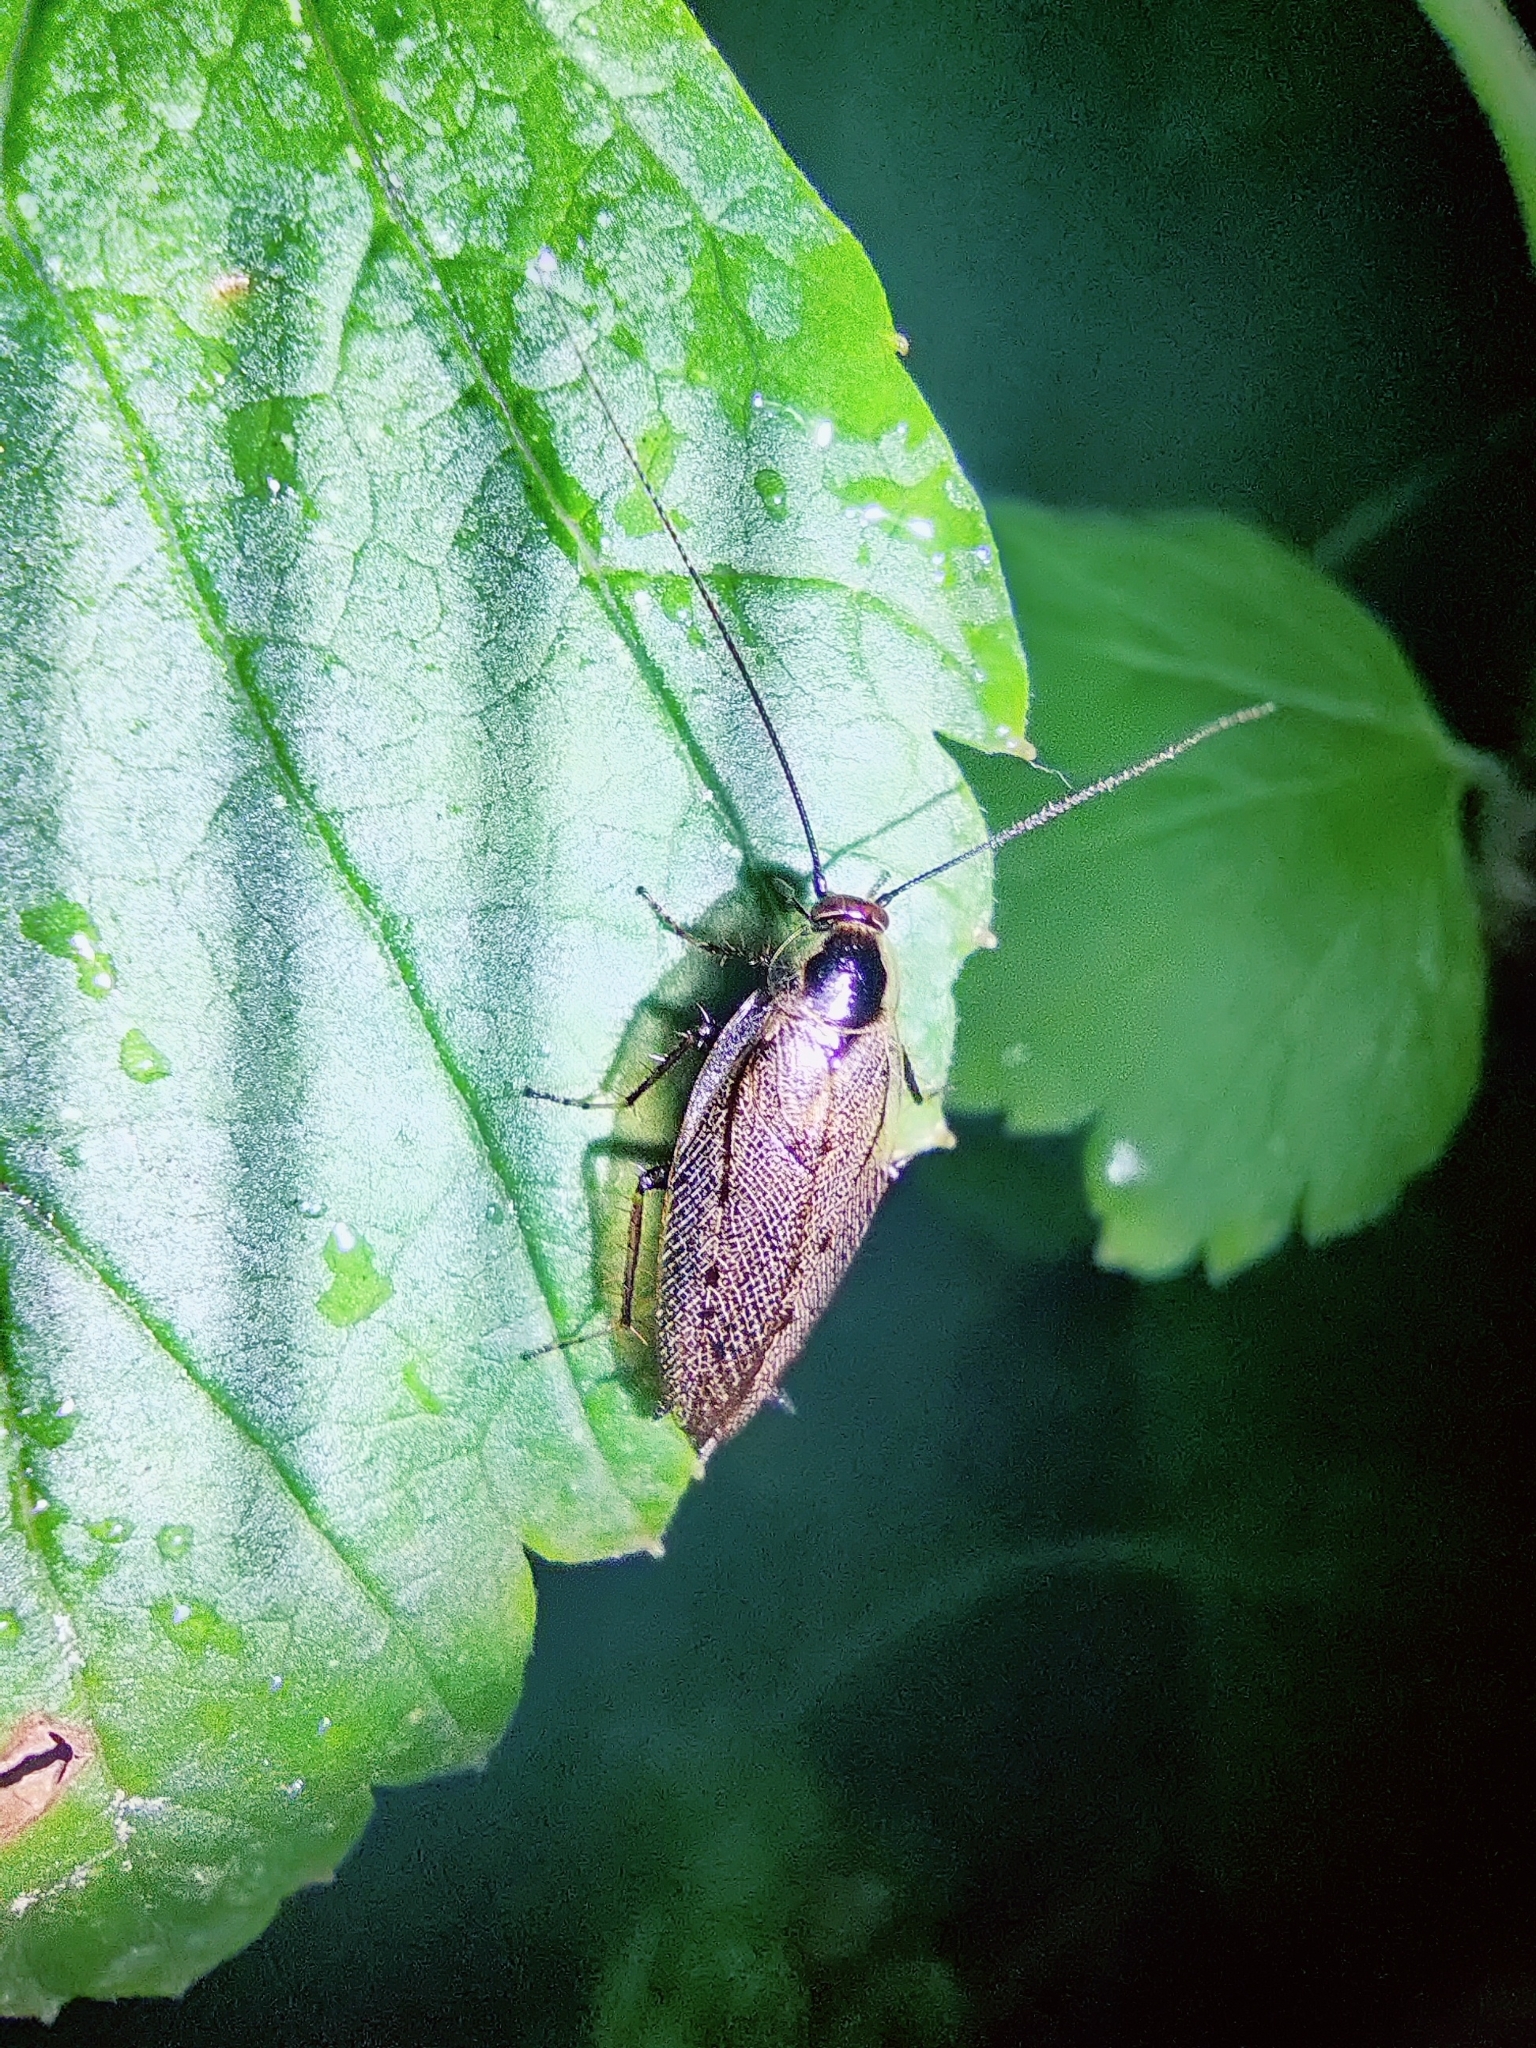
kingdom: Animalia
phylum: Arthropoda
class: Insecta
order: Blattodea
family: Ectobiidae
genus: Ectobius
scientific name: Ectobius lapponicus
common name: Dusky cockroach
